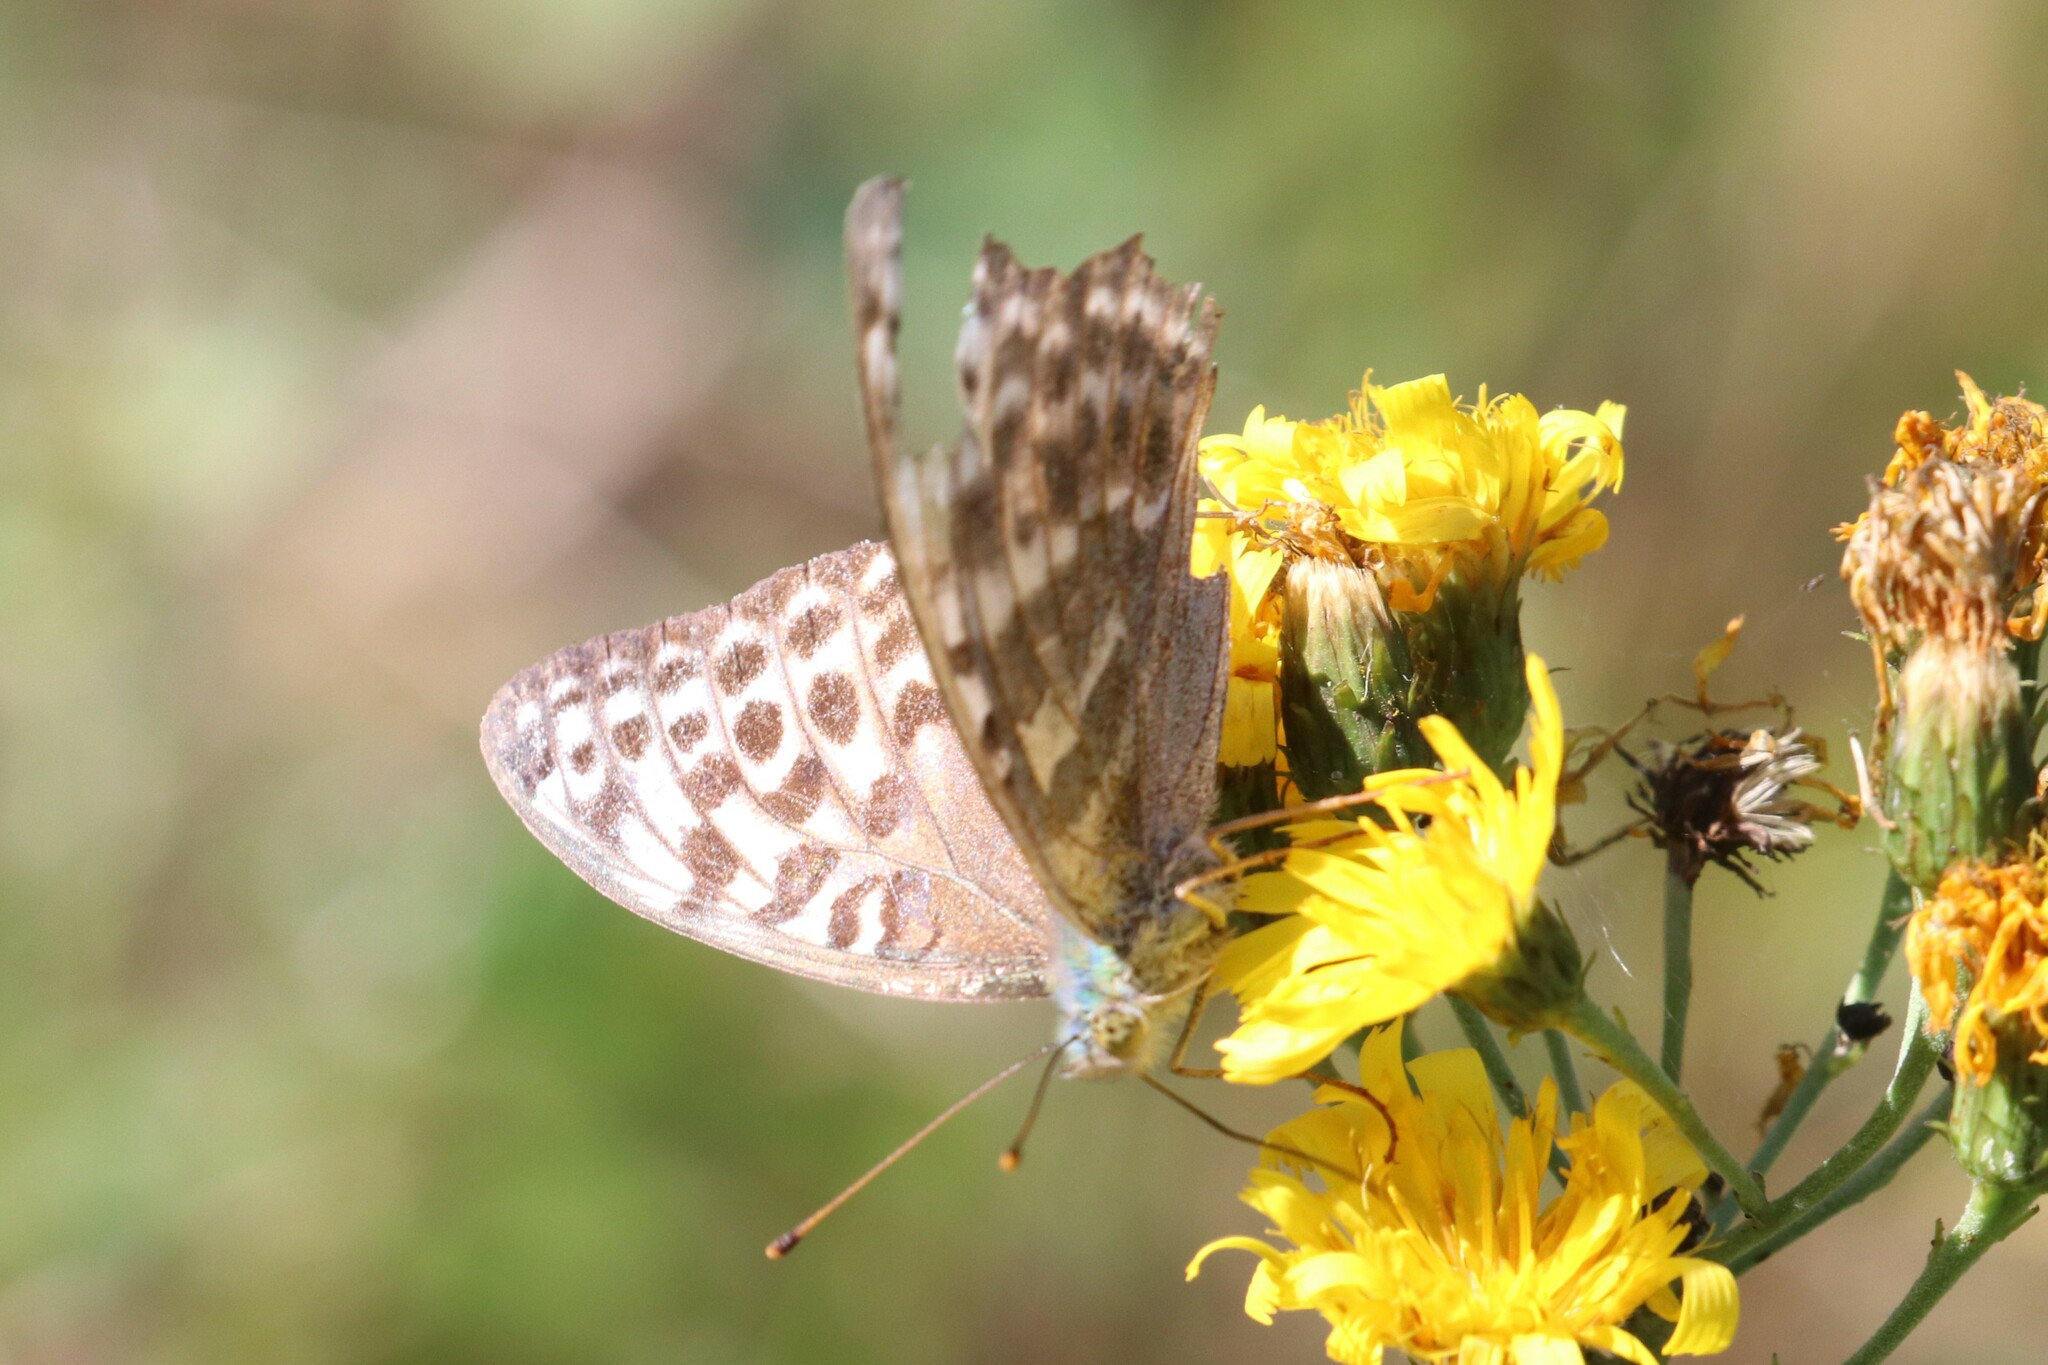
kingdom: Animalia
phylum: Arthropoda
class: Insecta
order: Lepidoptera
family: Nymphalidae
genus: Argynnis
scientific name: Argynnis paphia
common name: Silver-washed fritillary
